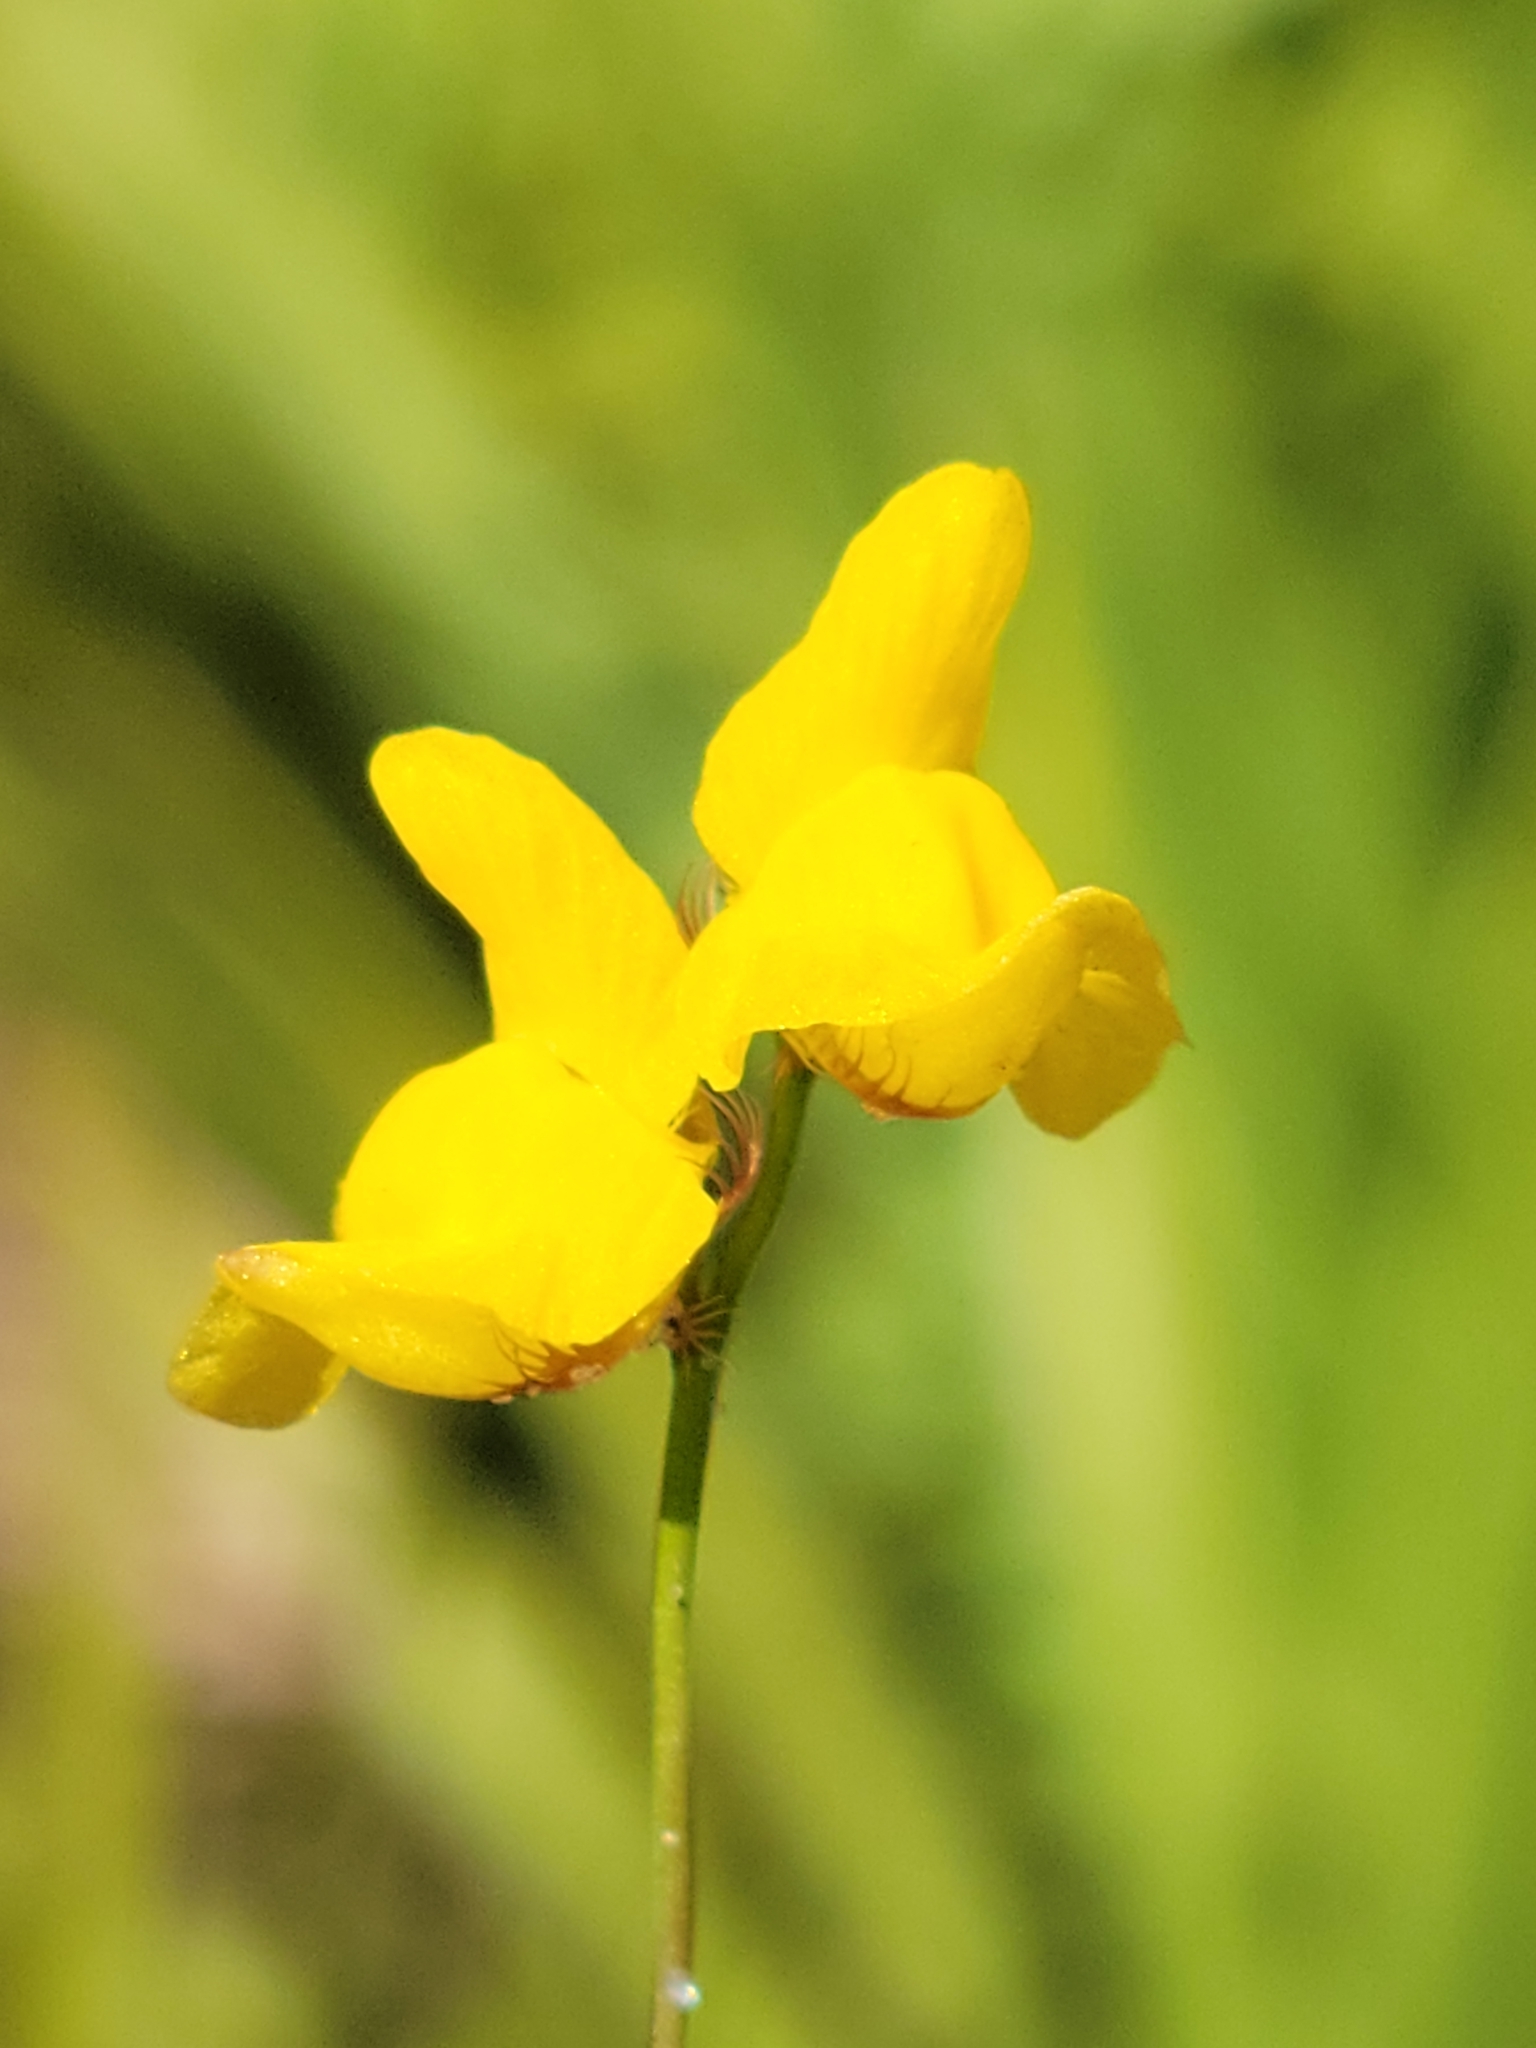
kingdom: Plantae
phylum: Tracheophyta
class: Magnoliopsida
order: Lamiales
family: Lentibulariaceae
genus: Utricularia
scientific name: Utricularia simulans
